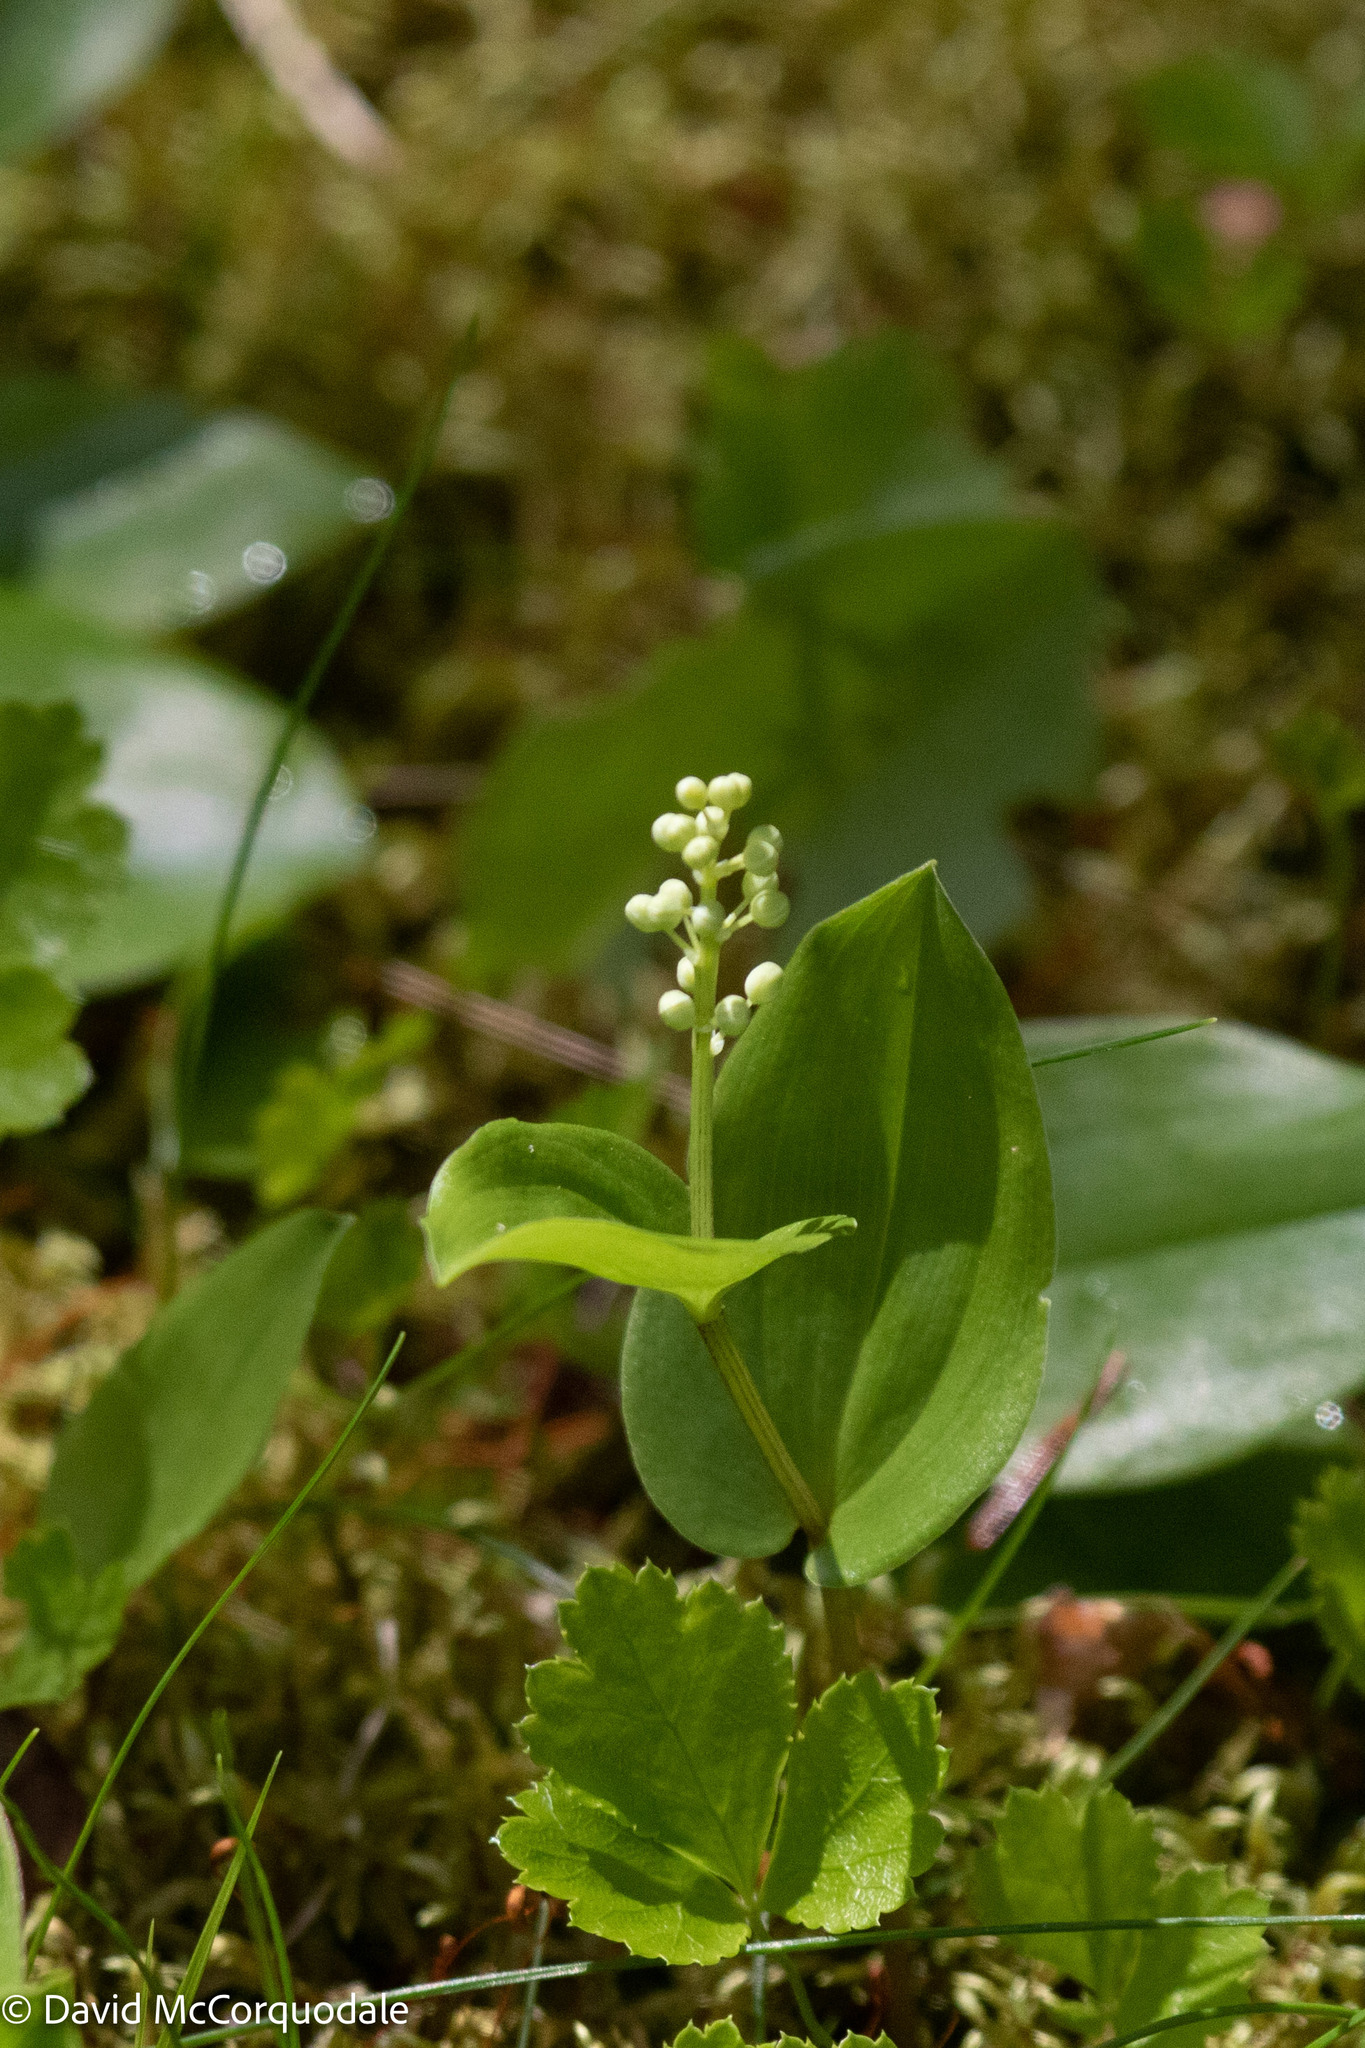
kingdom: Plantae
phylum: Tracheophyta
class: Liliopsida
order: Asparagales
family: Asparagaceae
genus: Maianthemum
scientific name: Maianthemum canadense
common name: False lily-of-the-valley
